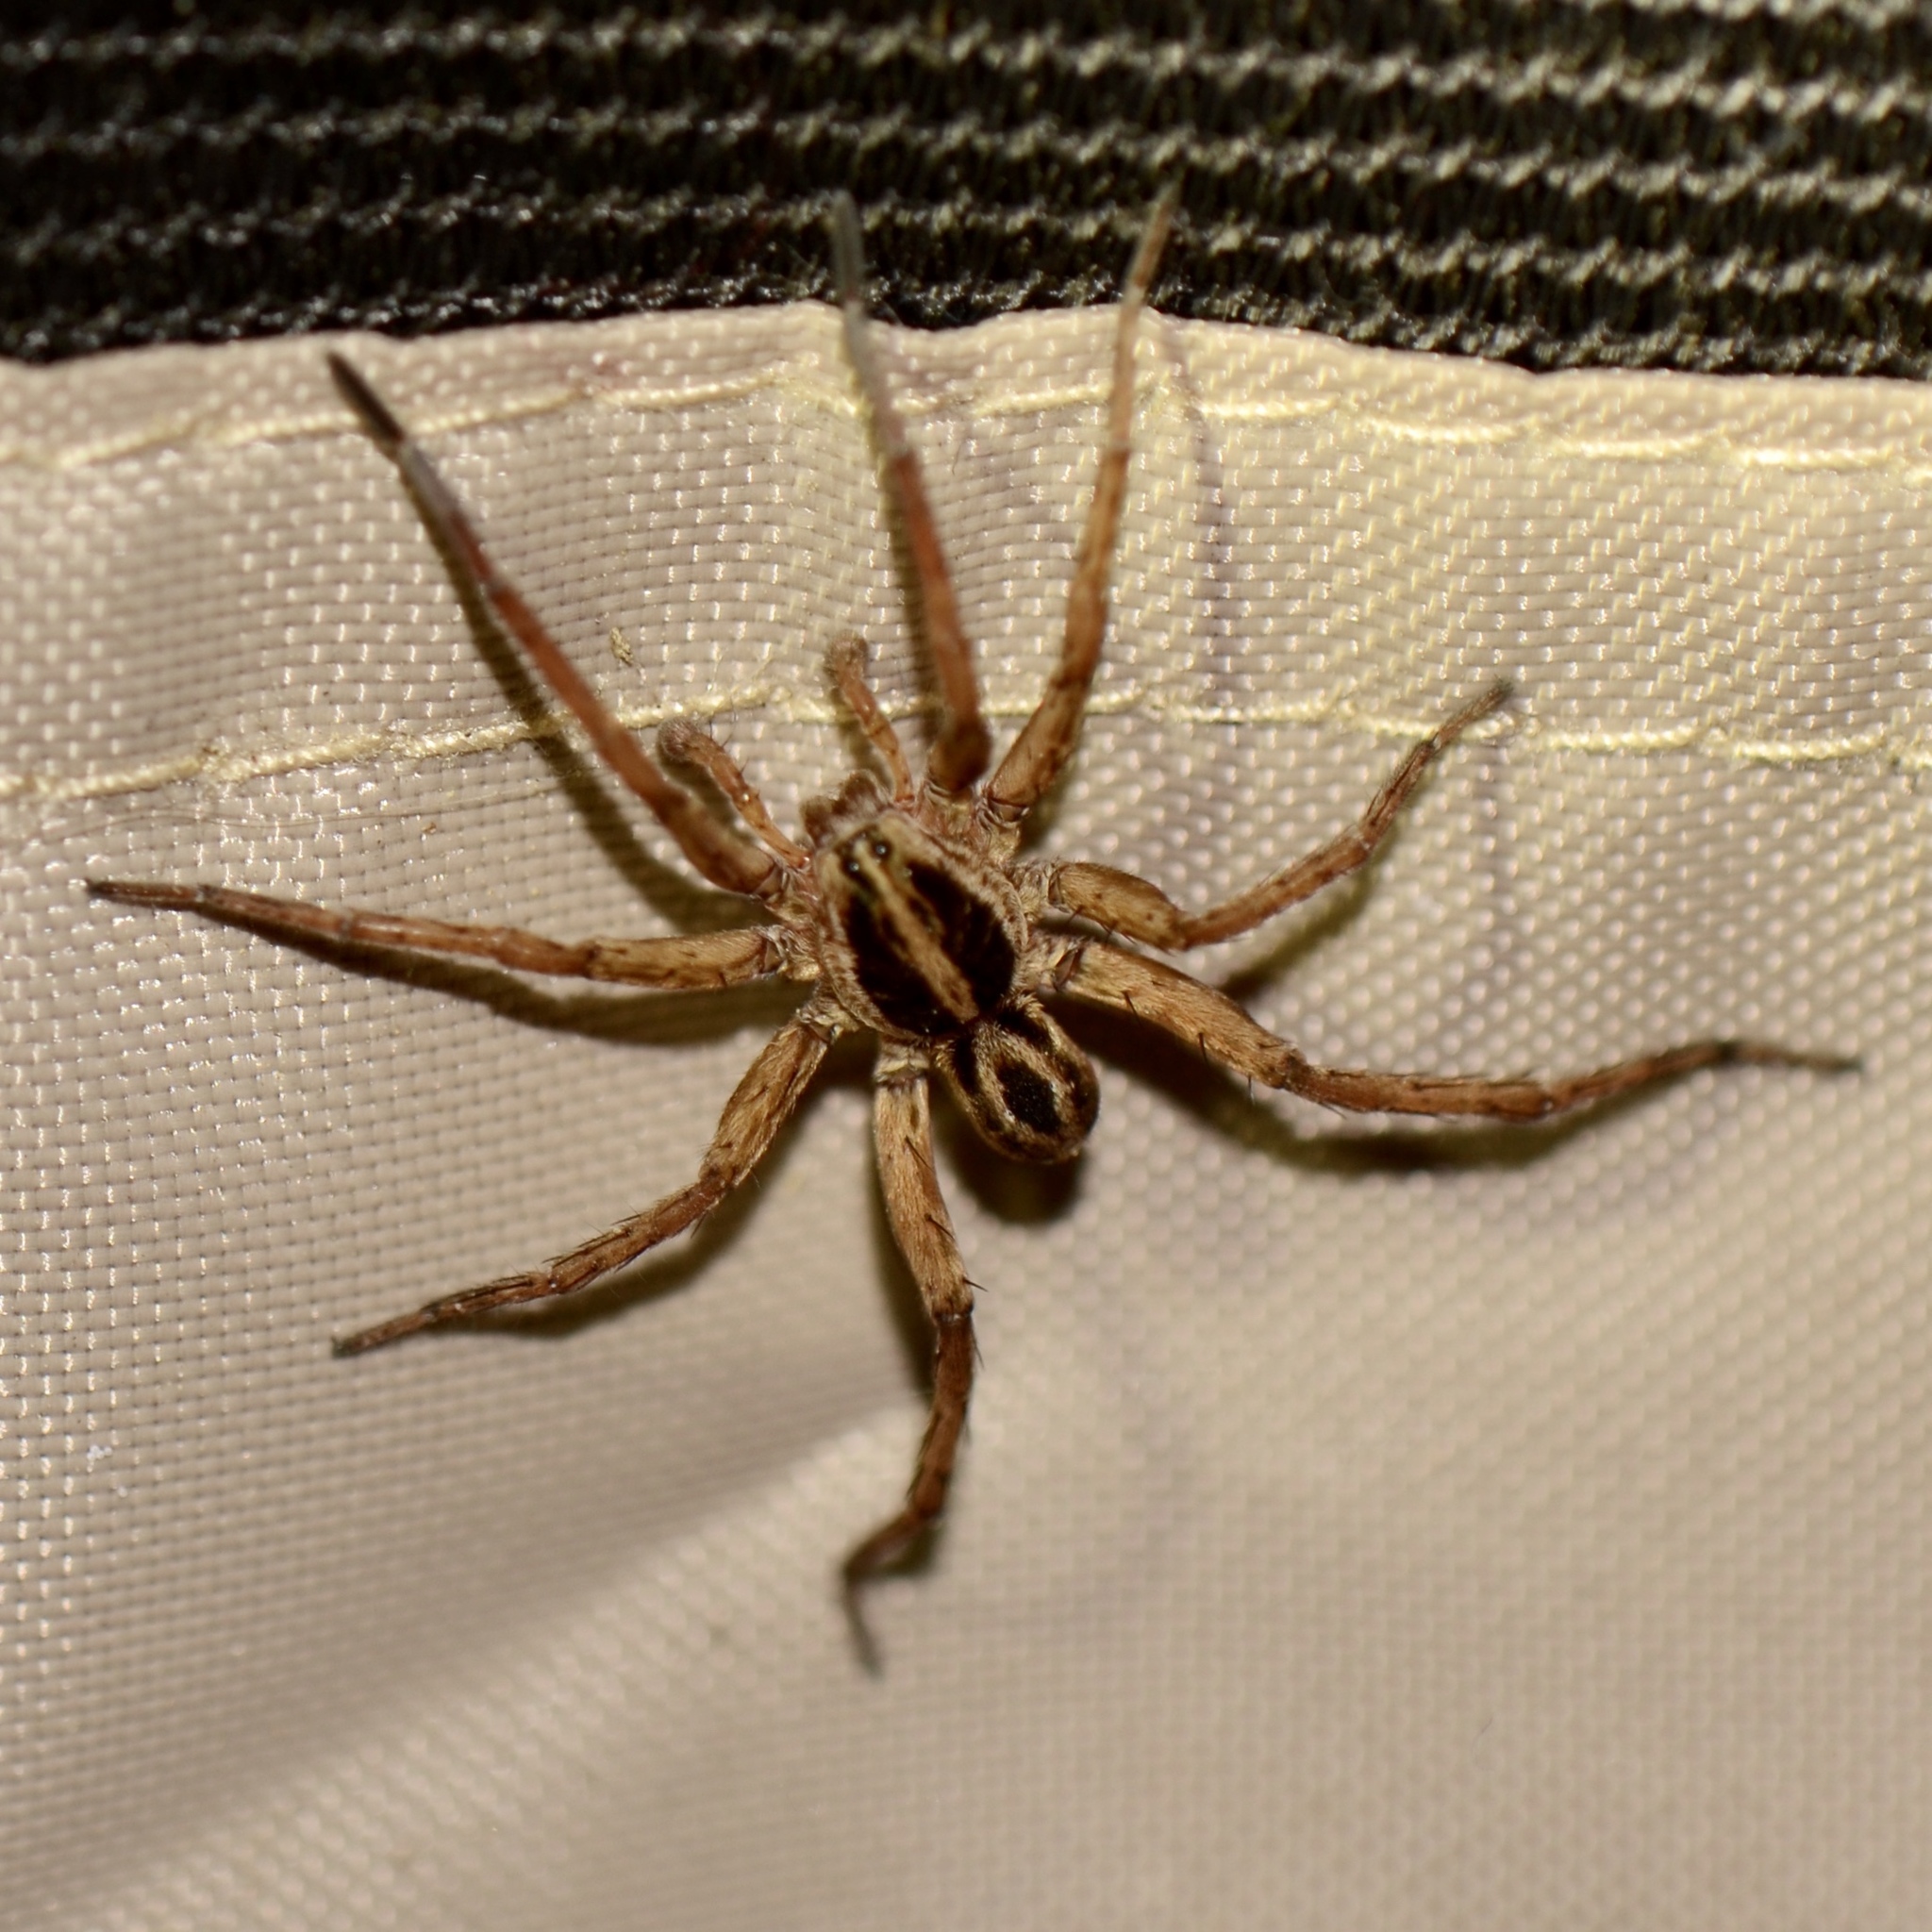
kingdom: Animalia
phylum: Arthropoda
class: Arachnida
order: Araneae
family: Lycosidae
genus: Tigrosa
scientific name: Tigrosa annexa
